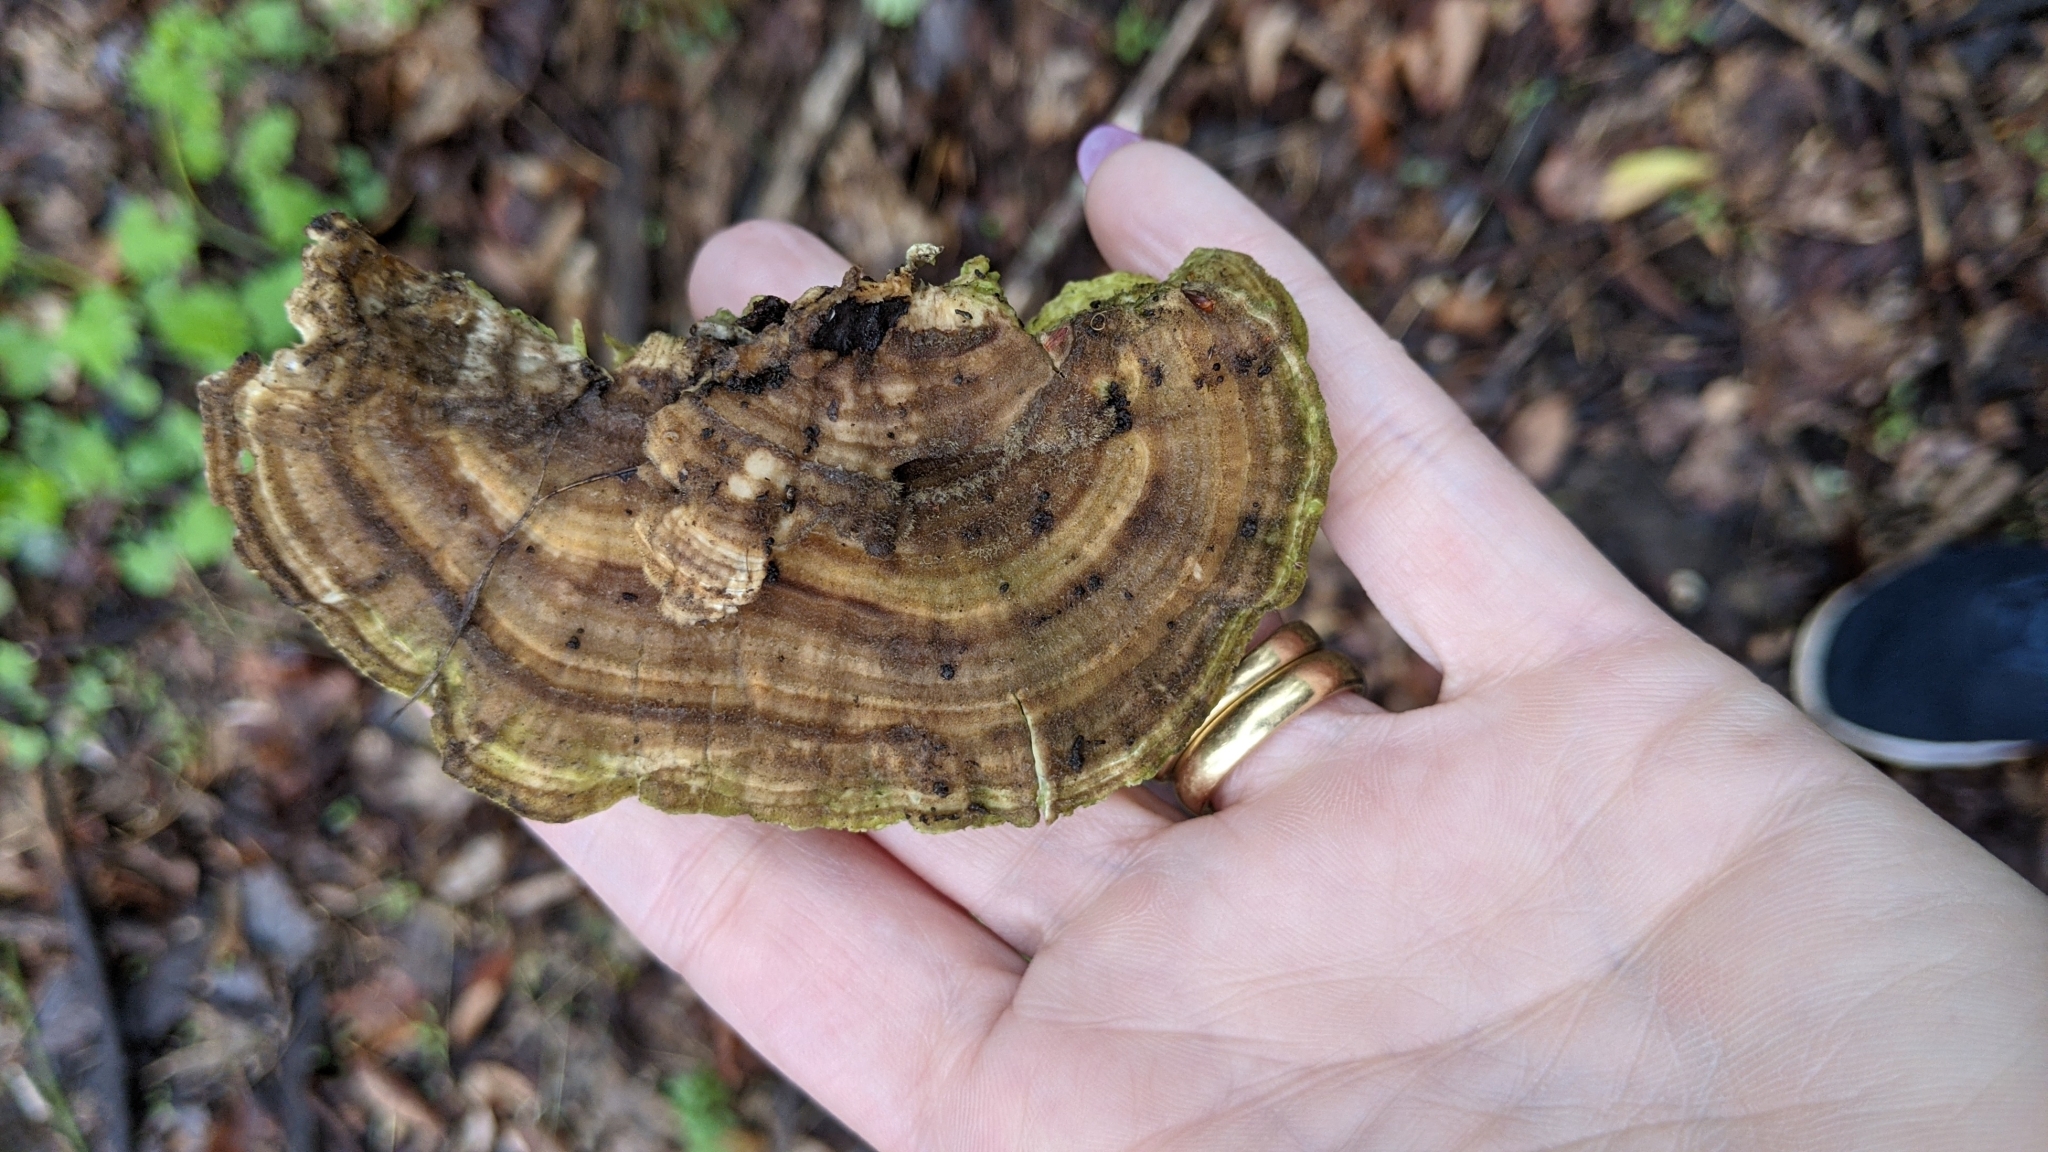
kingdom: Fungi
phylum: Basidiomycota
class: Agaricomycetes
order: Polyporales
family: Polyporaceae
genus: Lenzites
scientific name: Lenzites betulinus
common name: Birch mazegill
